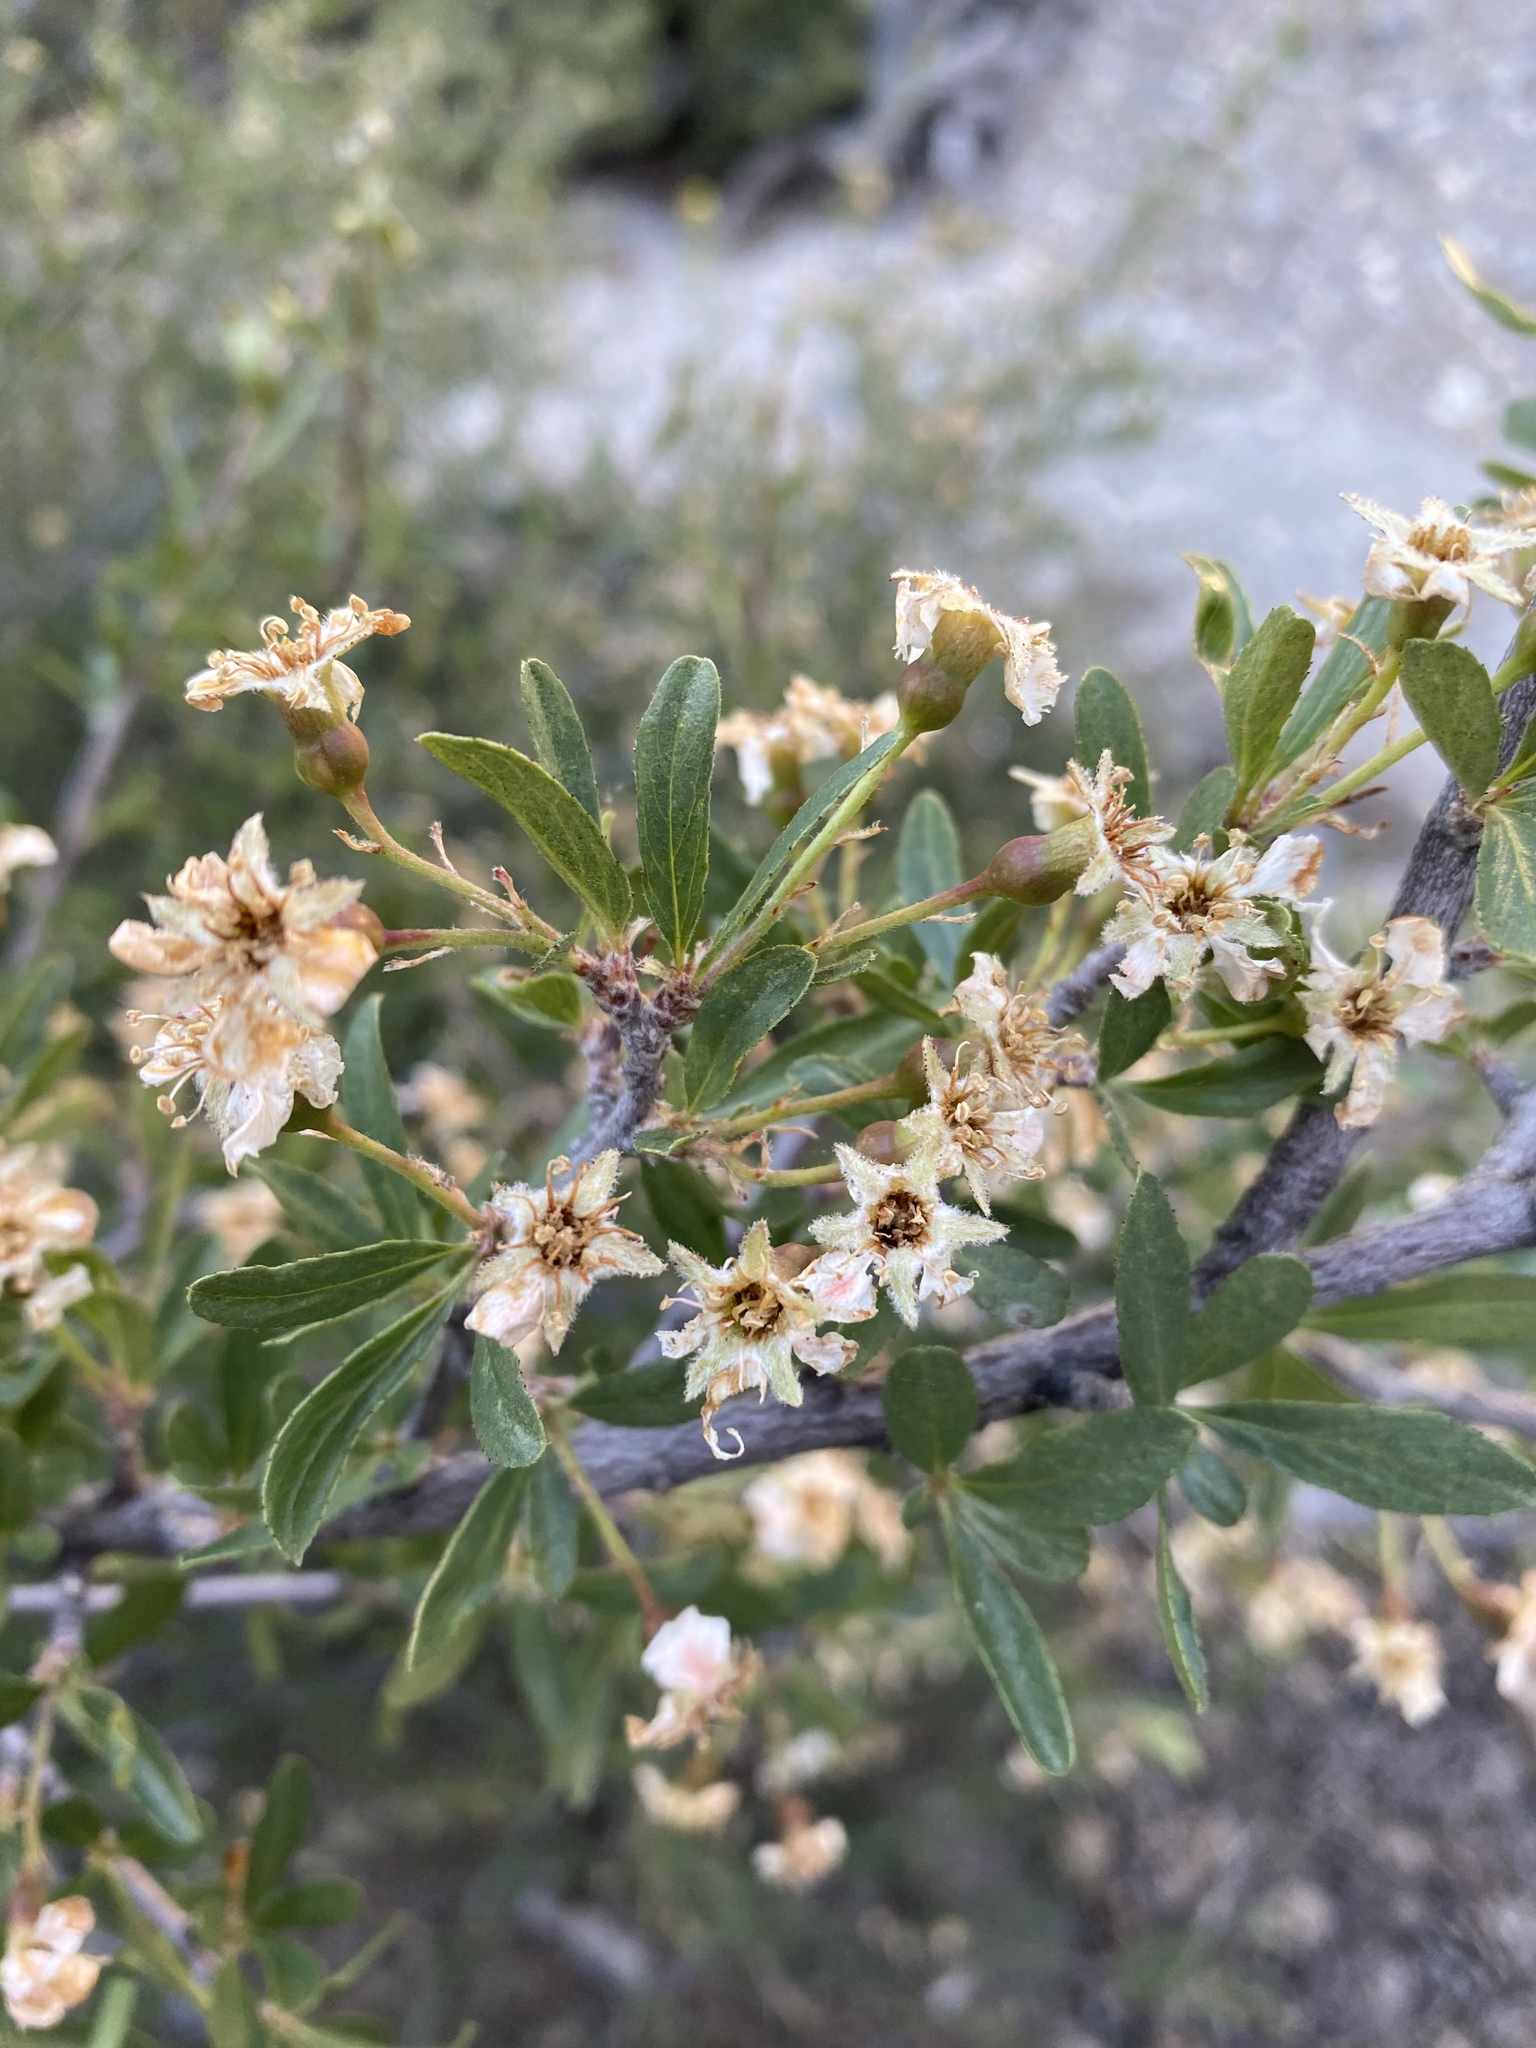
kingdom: Plantae
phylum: Tracheophyta
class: Magnoliopsida
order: Rosales
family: Rosaceae
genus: Amelanchier
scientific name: Amelanchier ramosissima
